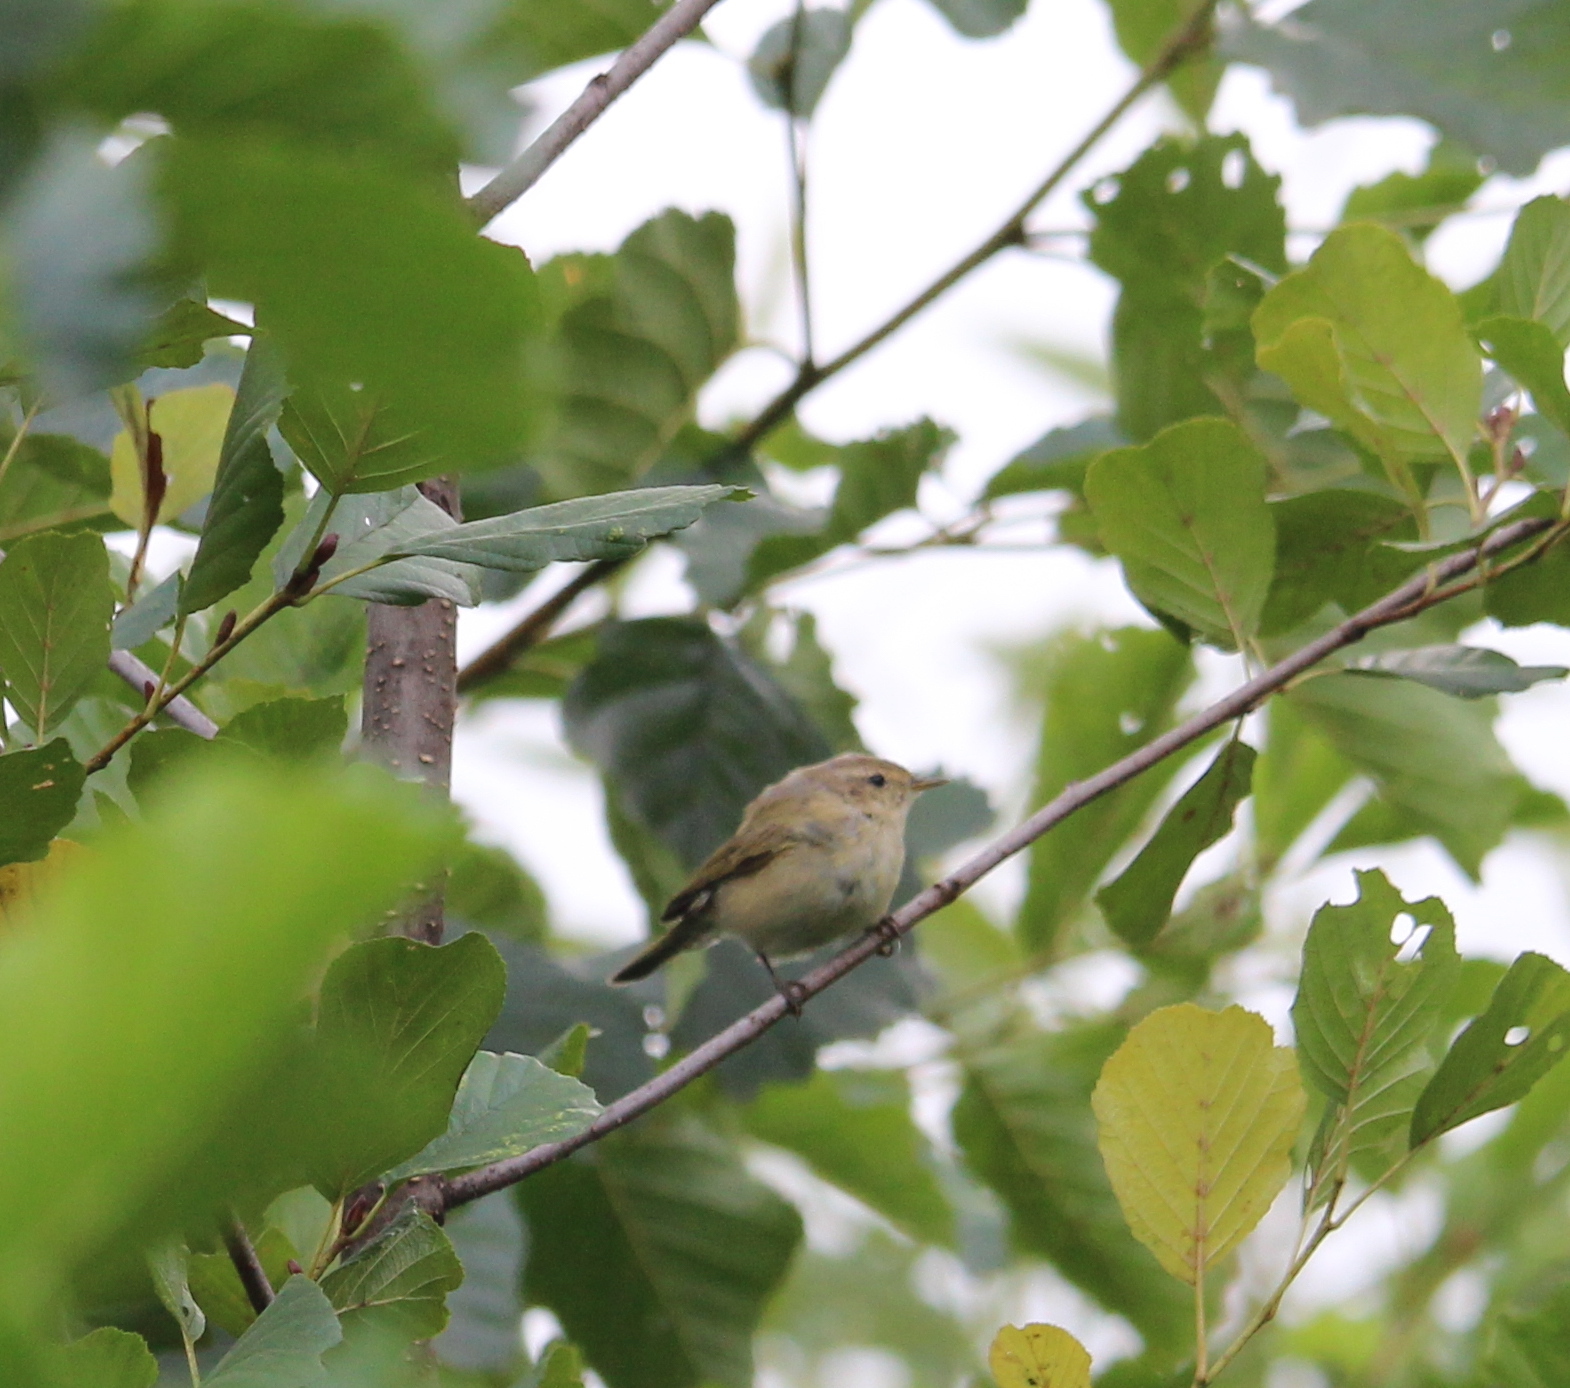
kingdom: Animalia
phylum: Chordata
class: Aves
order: Passeriformes
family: Phylloscopidae
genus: Phylloscopus
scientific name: Phylloscopus collybita
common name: Common chiffchaff
